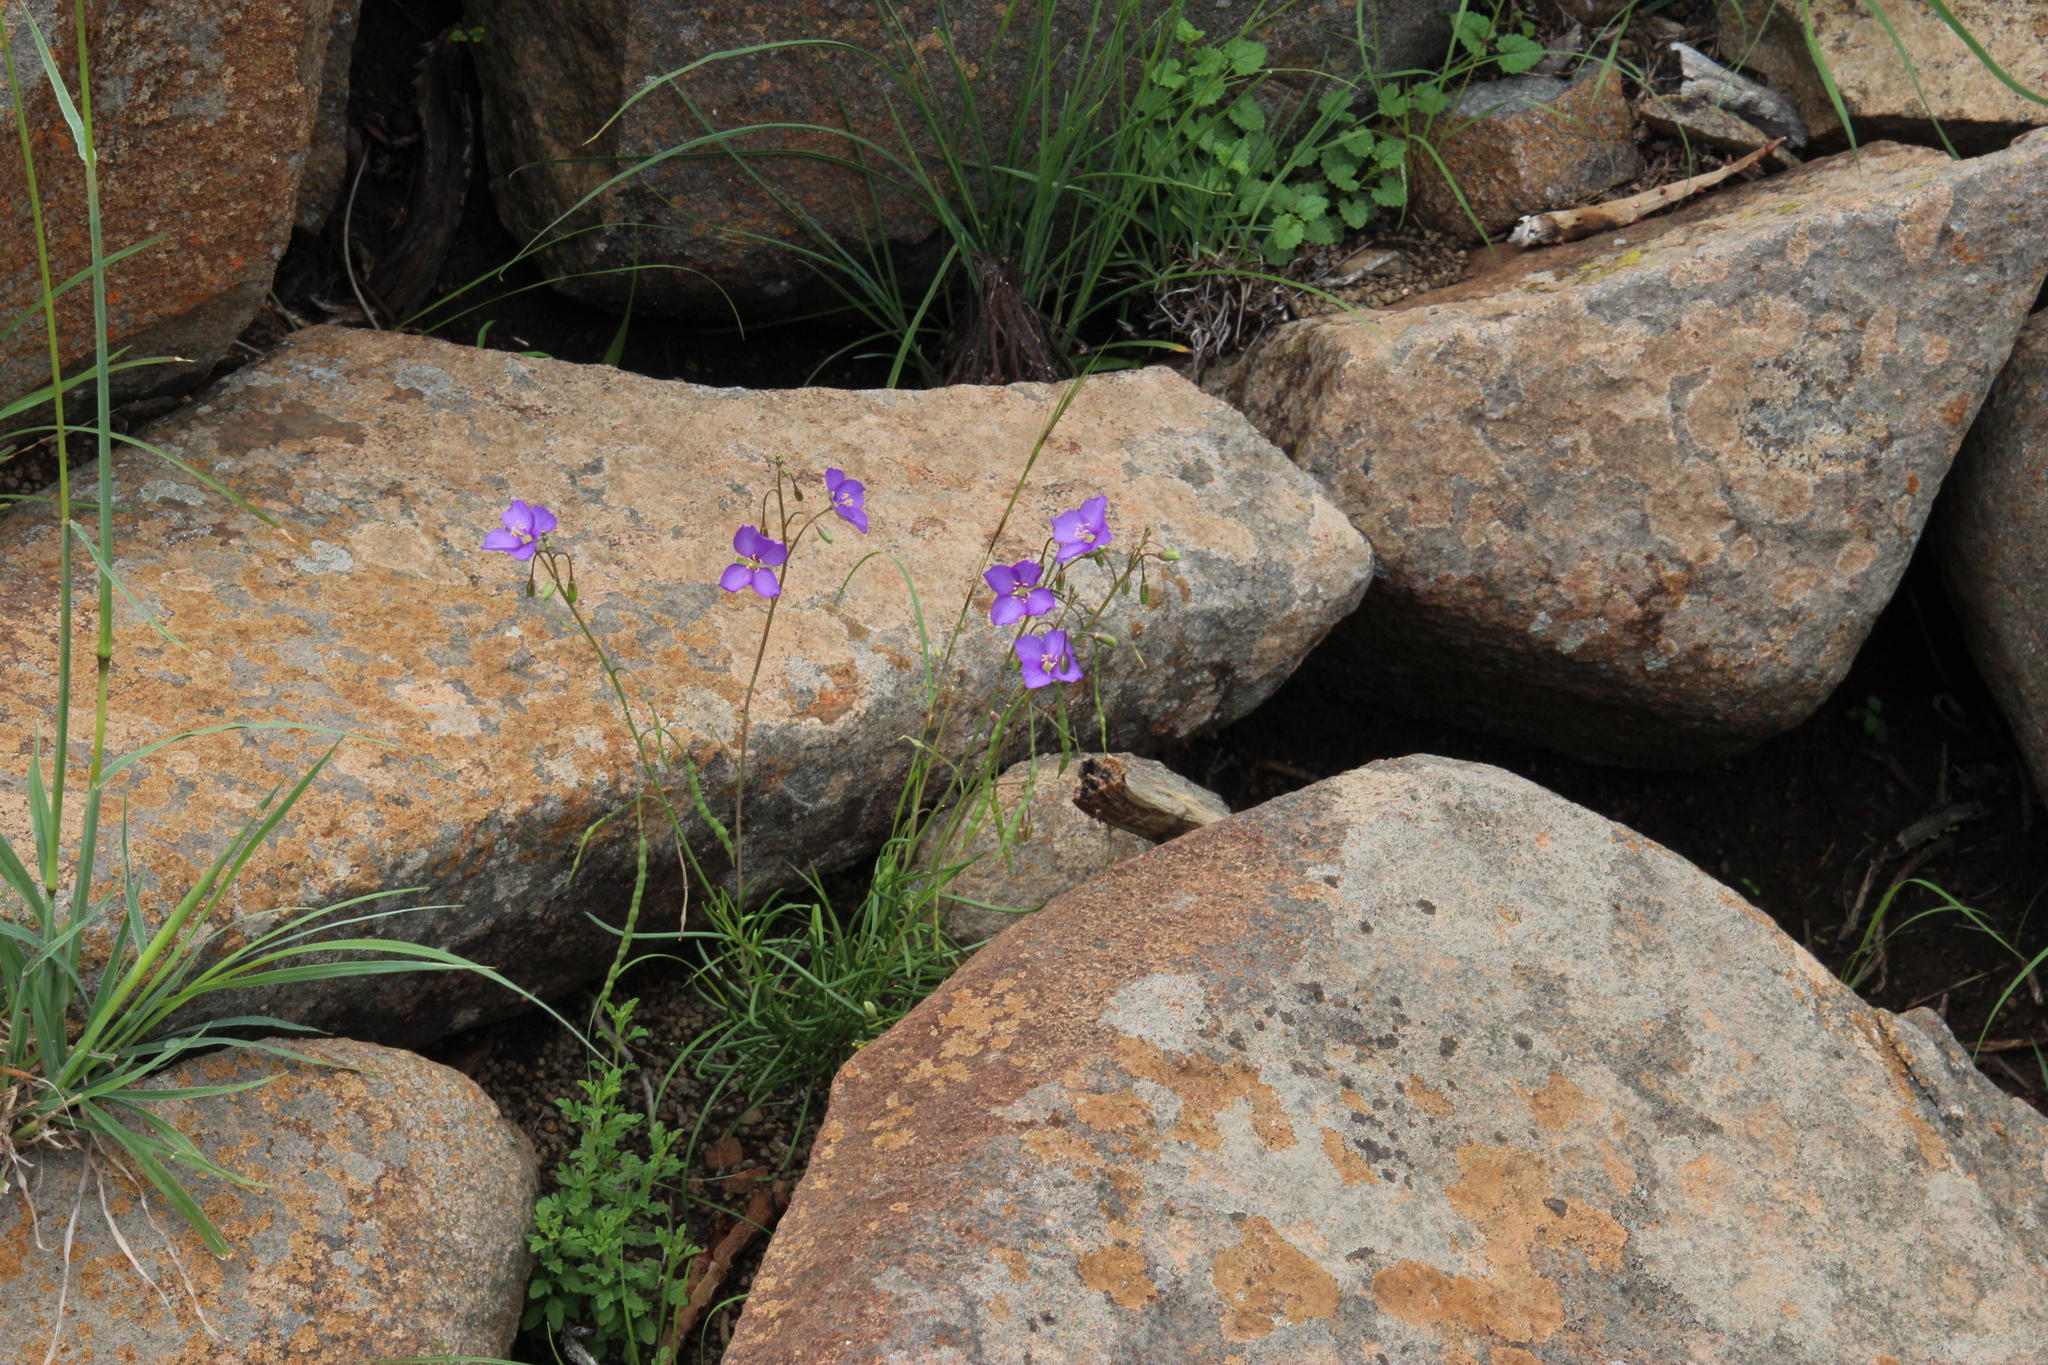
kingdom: Plantae
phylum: Tracheophyta
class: Magnoliopsida
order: Brassicales
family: Brassicaceae
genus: Heliophila
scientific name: Heliophila suavissima
